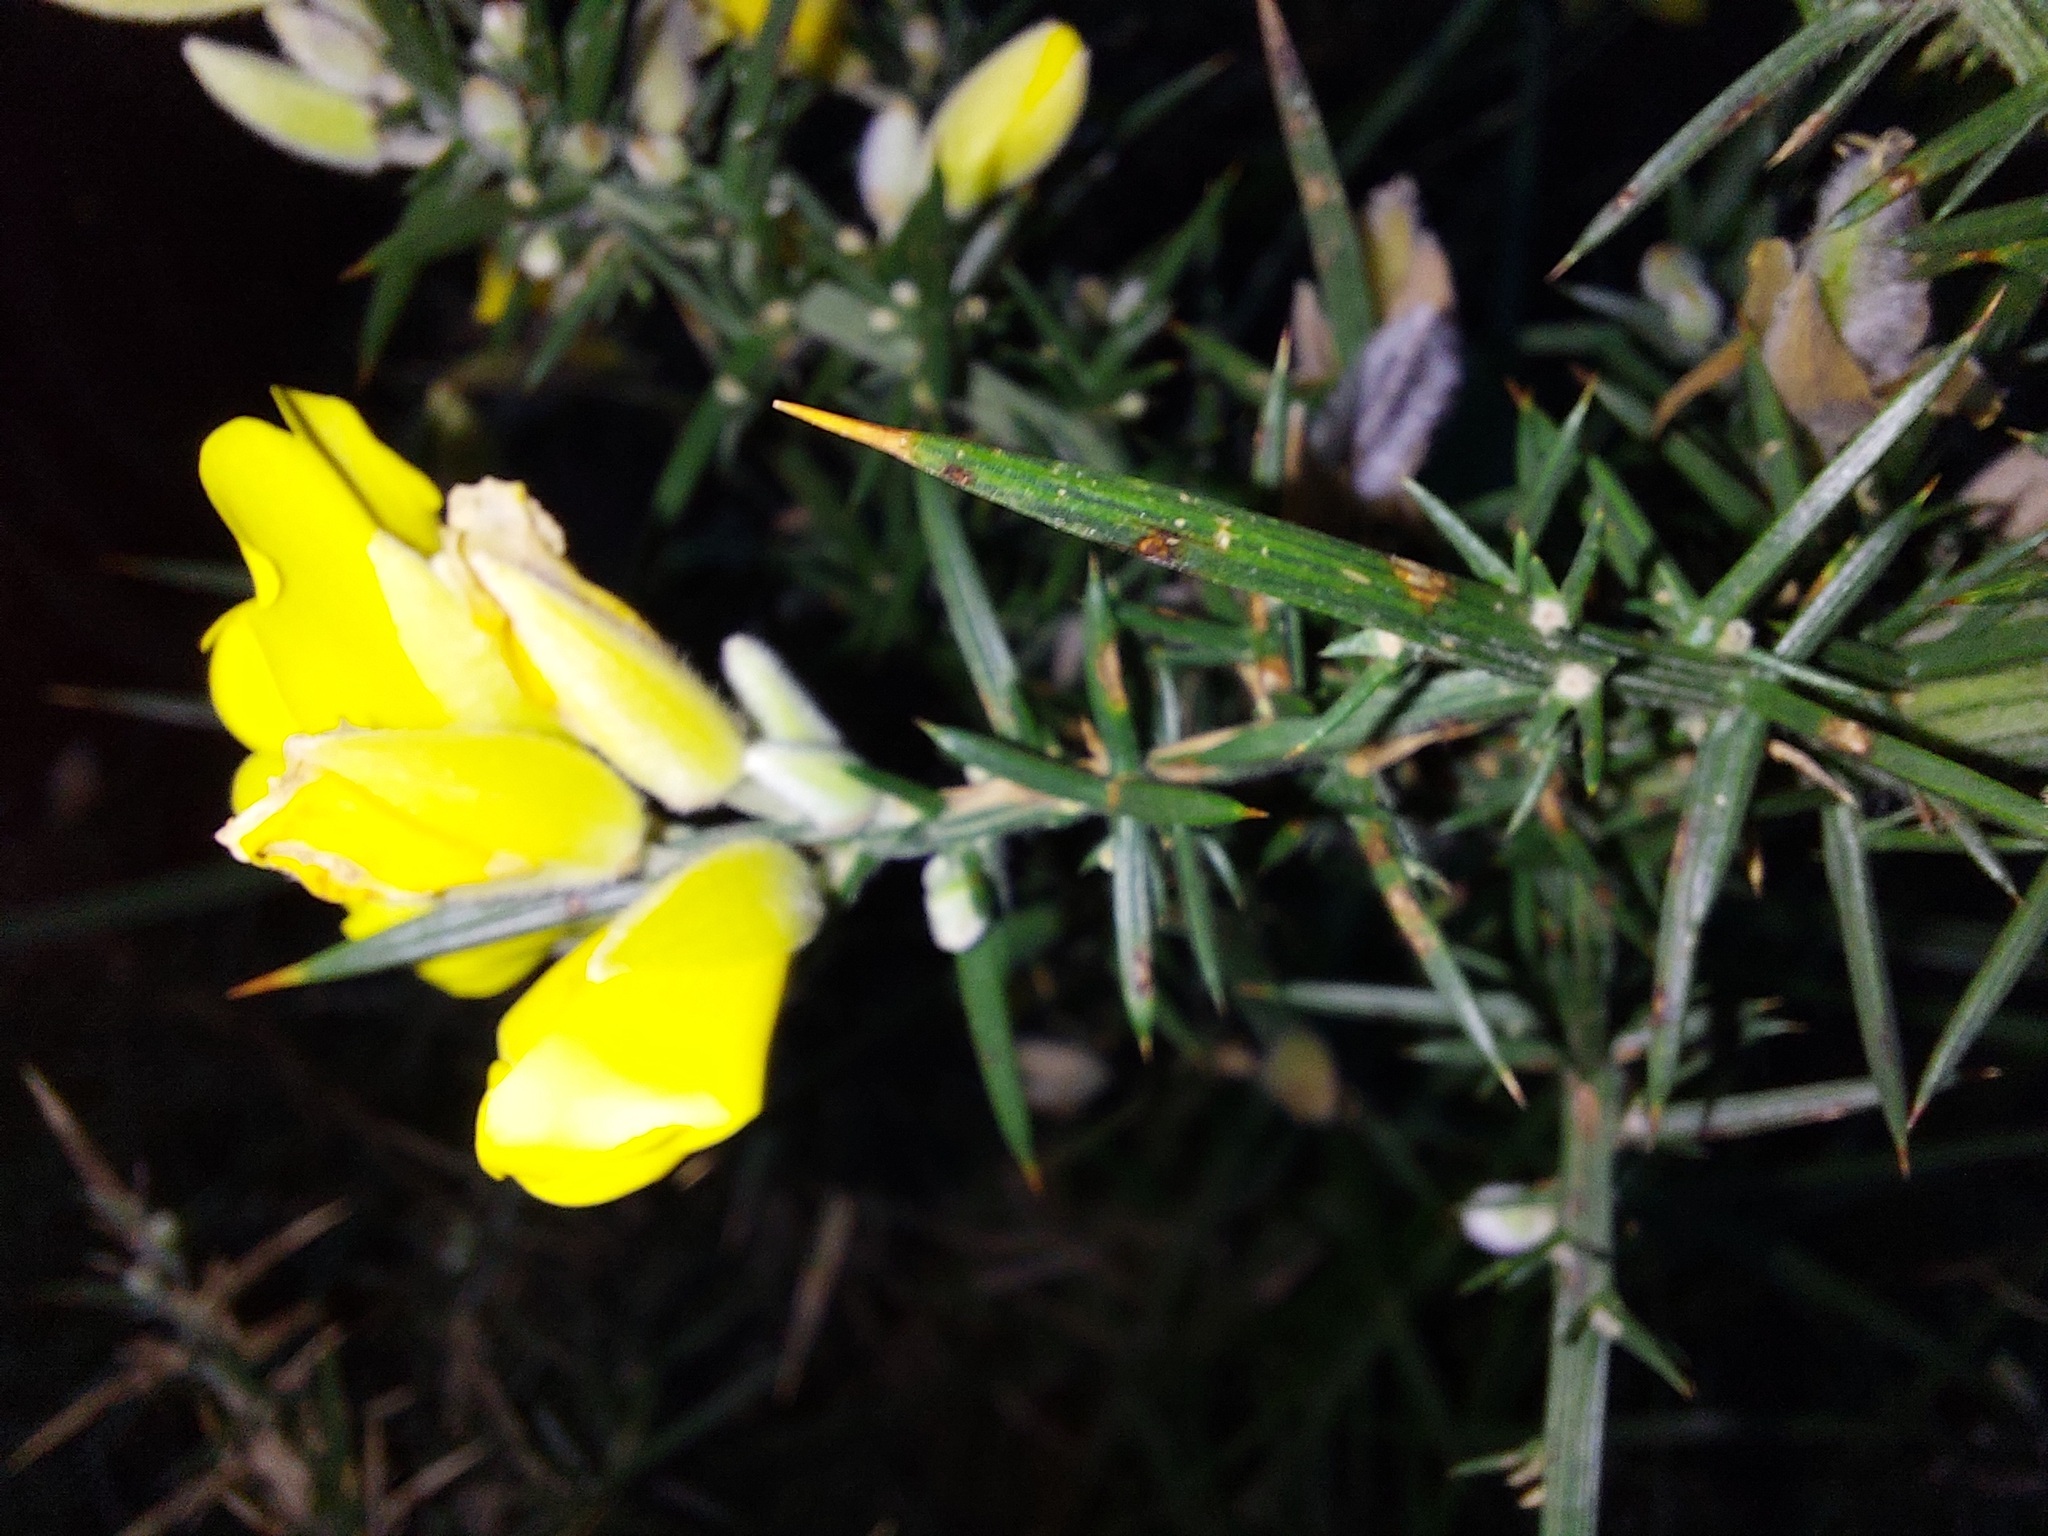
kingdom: Plantae
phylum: Tracheophyta
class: Magnoliopsida
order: Fabales
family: Fabaceae
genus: Ulex
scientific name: Ulex europaeus
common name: Common gorse
